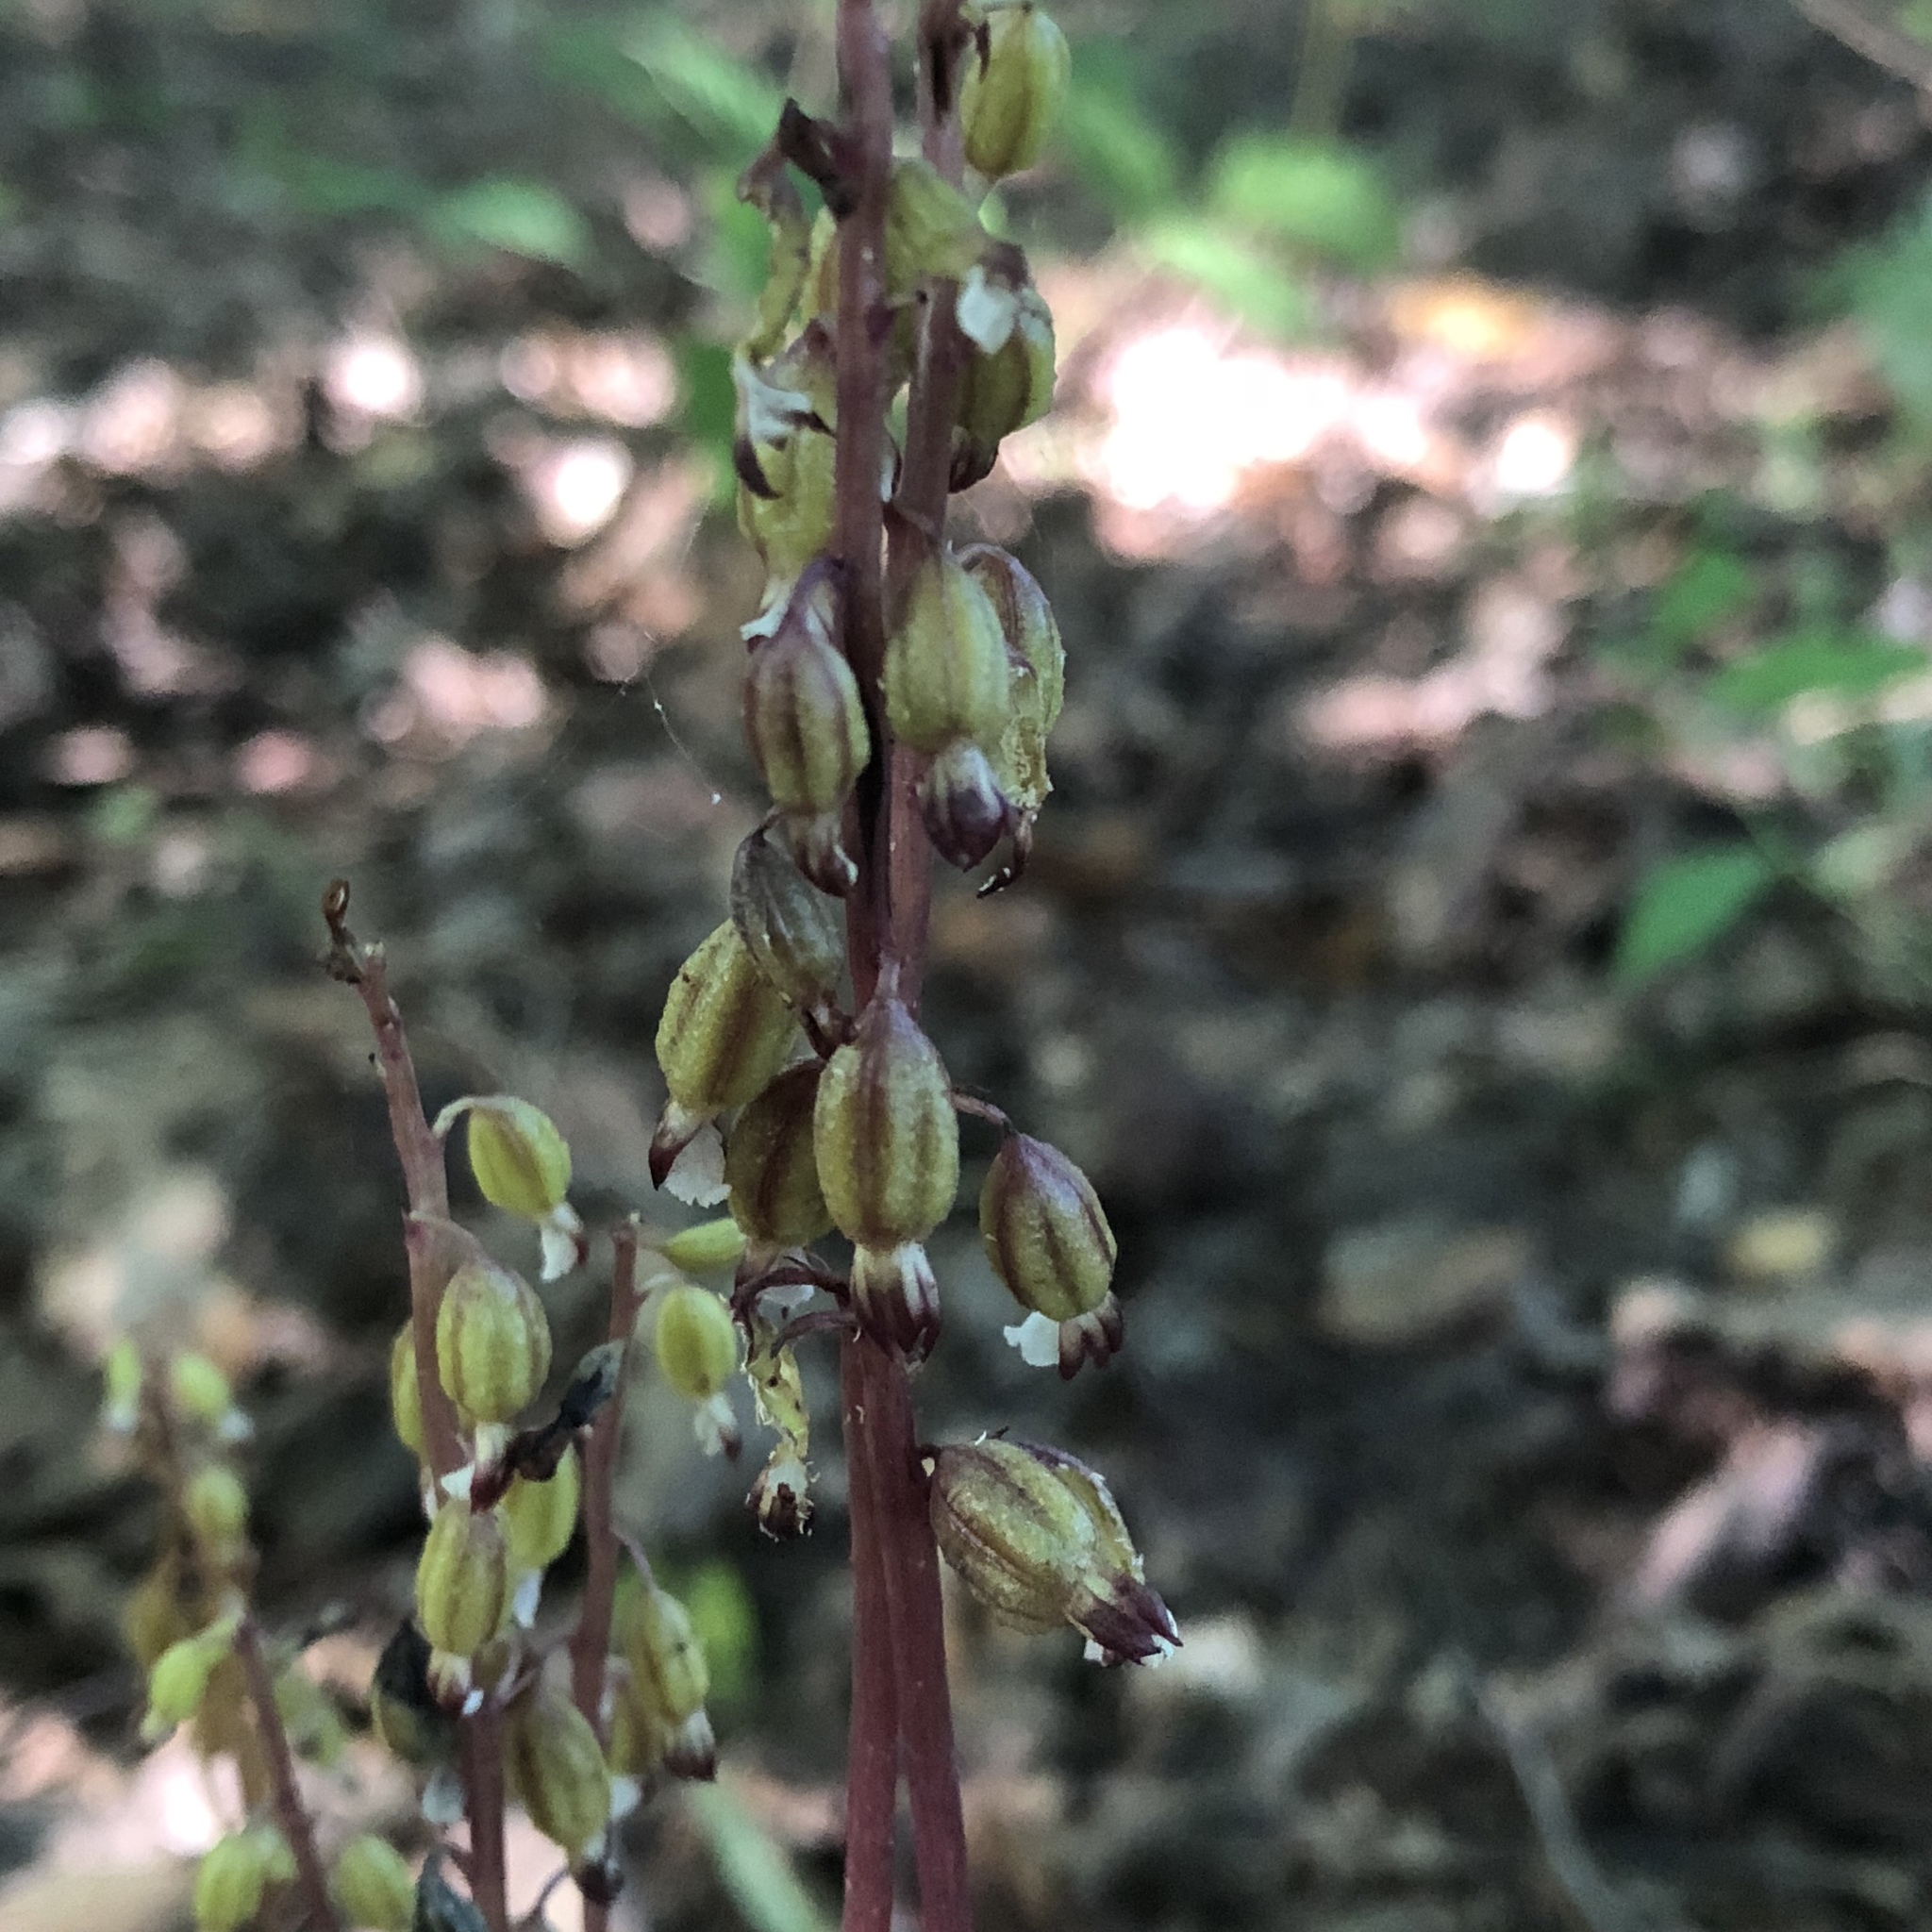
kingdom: Plantae
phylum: Tracheophyta
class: Liliopsida
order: Asparagales
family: Orchidaceae
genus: Corallorhiza
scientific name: Corallorhiza odontorhiza
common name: Autumn coralroot
